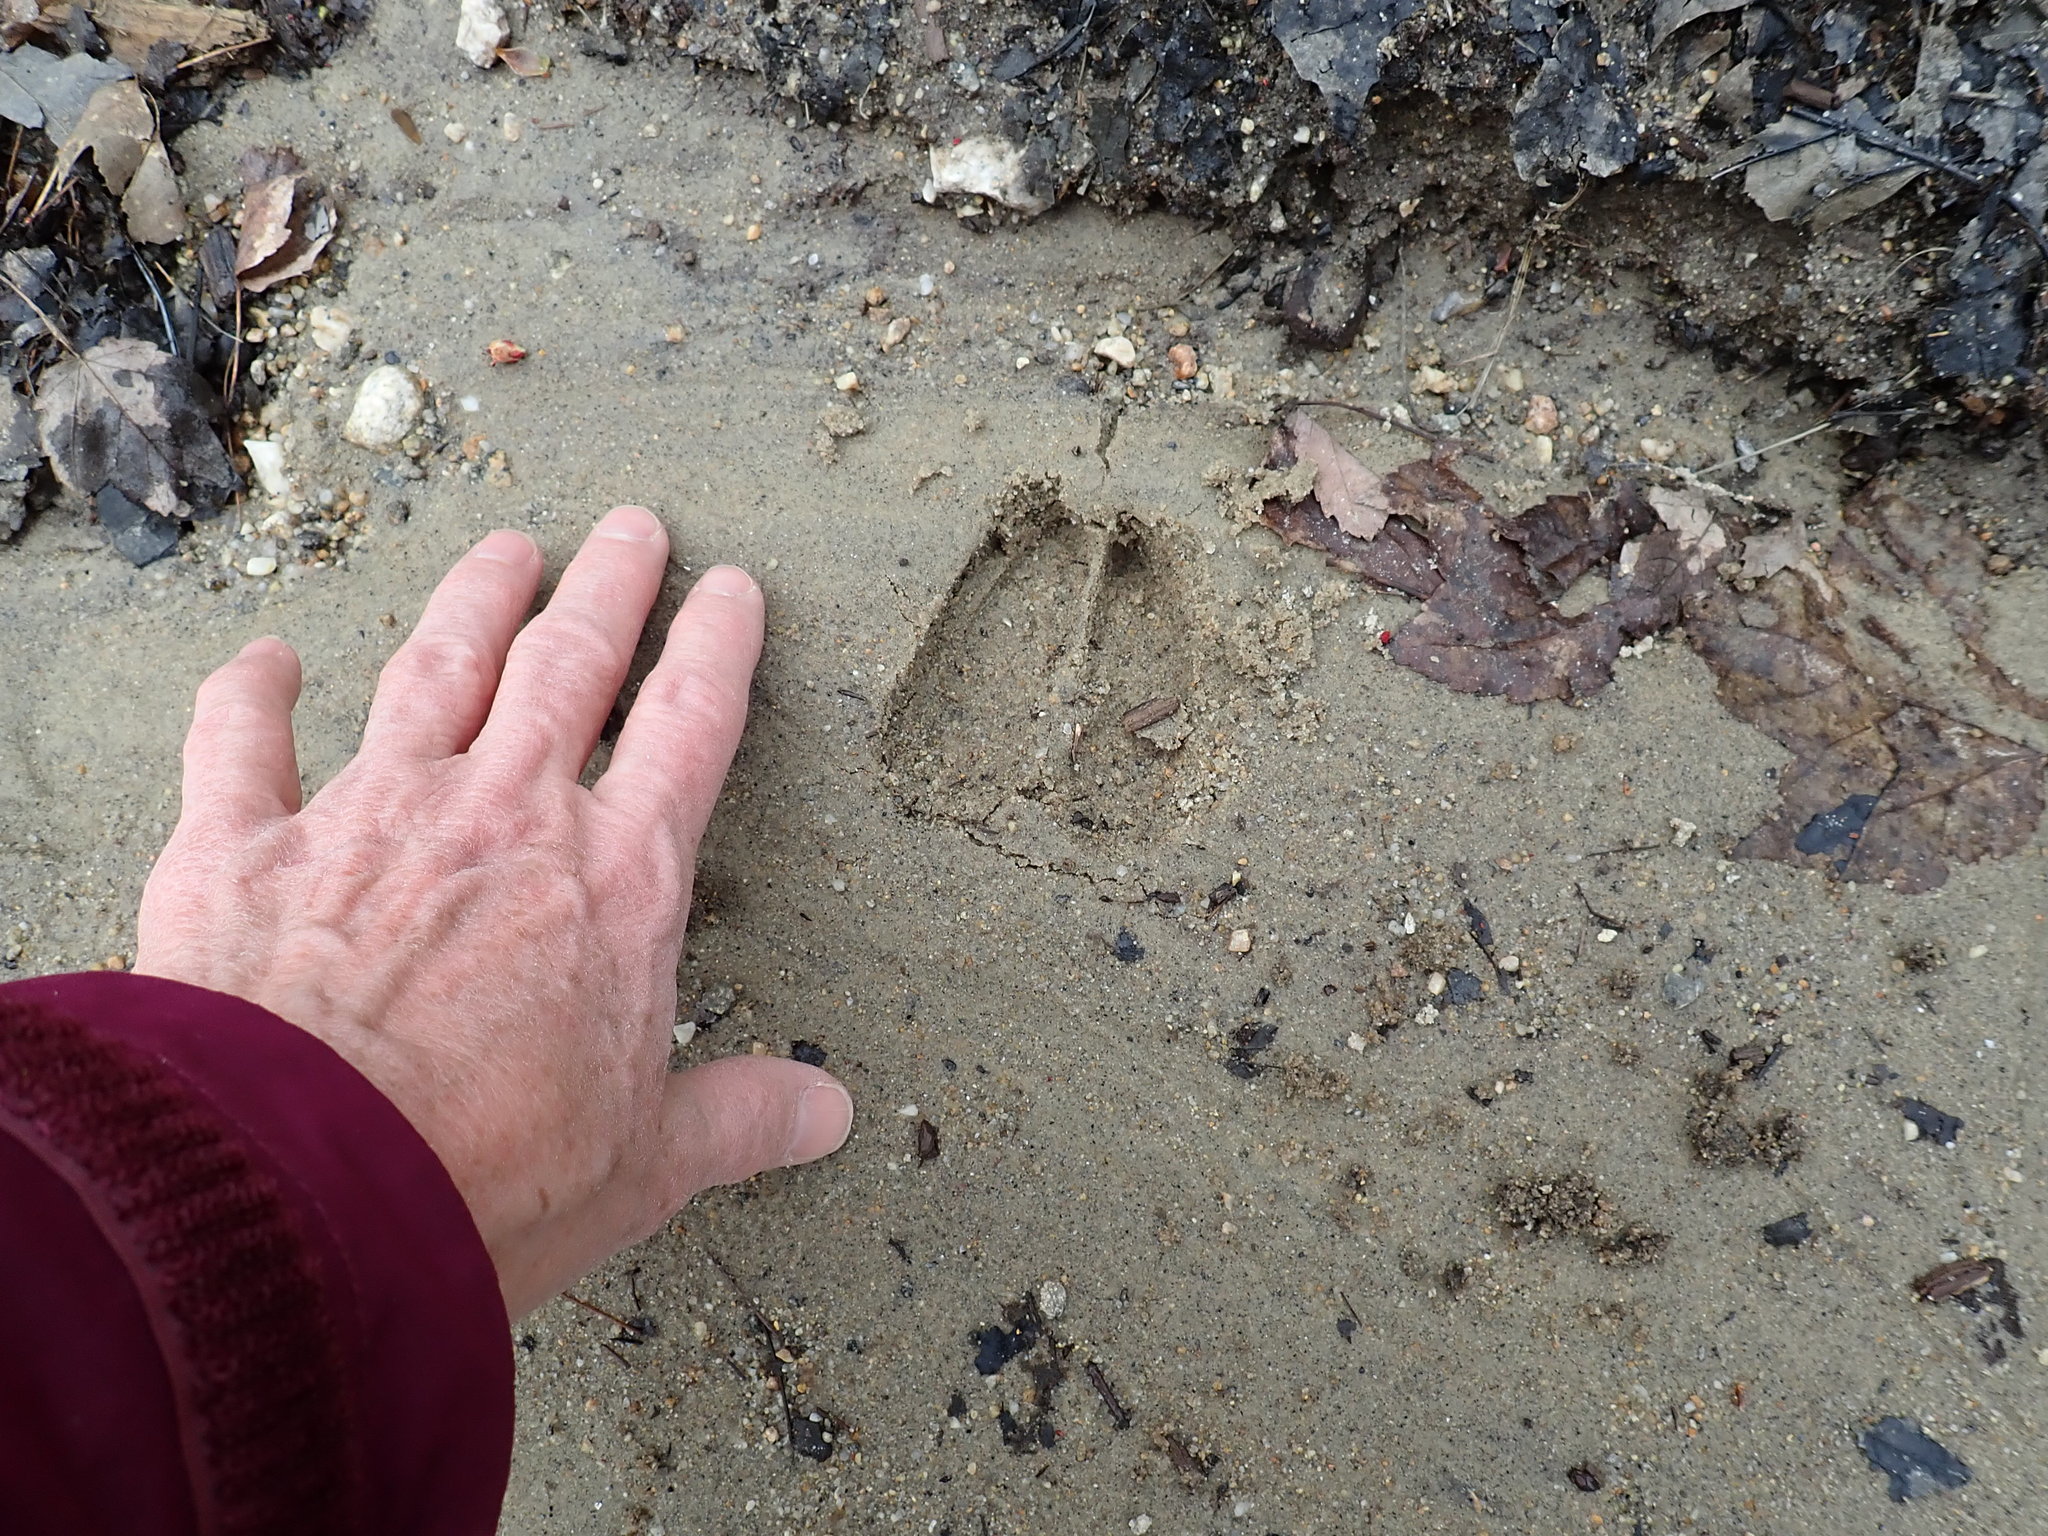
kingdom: Animalia
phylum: Chordata
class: Mammalia
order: Artiodactyla
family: Cervidae
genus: Odocoileus
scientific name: Odocoileus virginianus
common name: White-tailed deer
